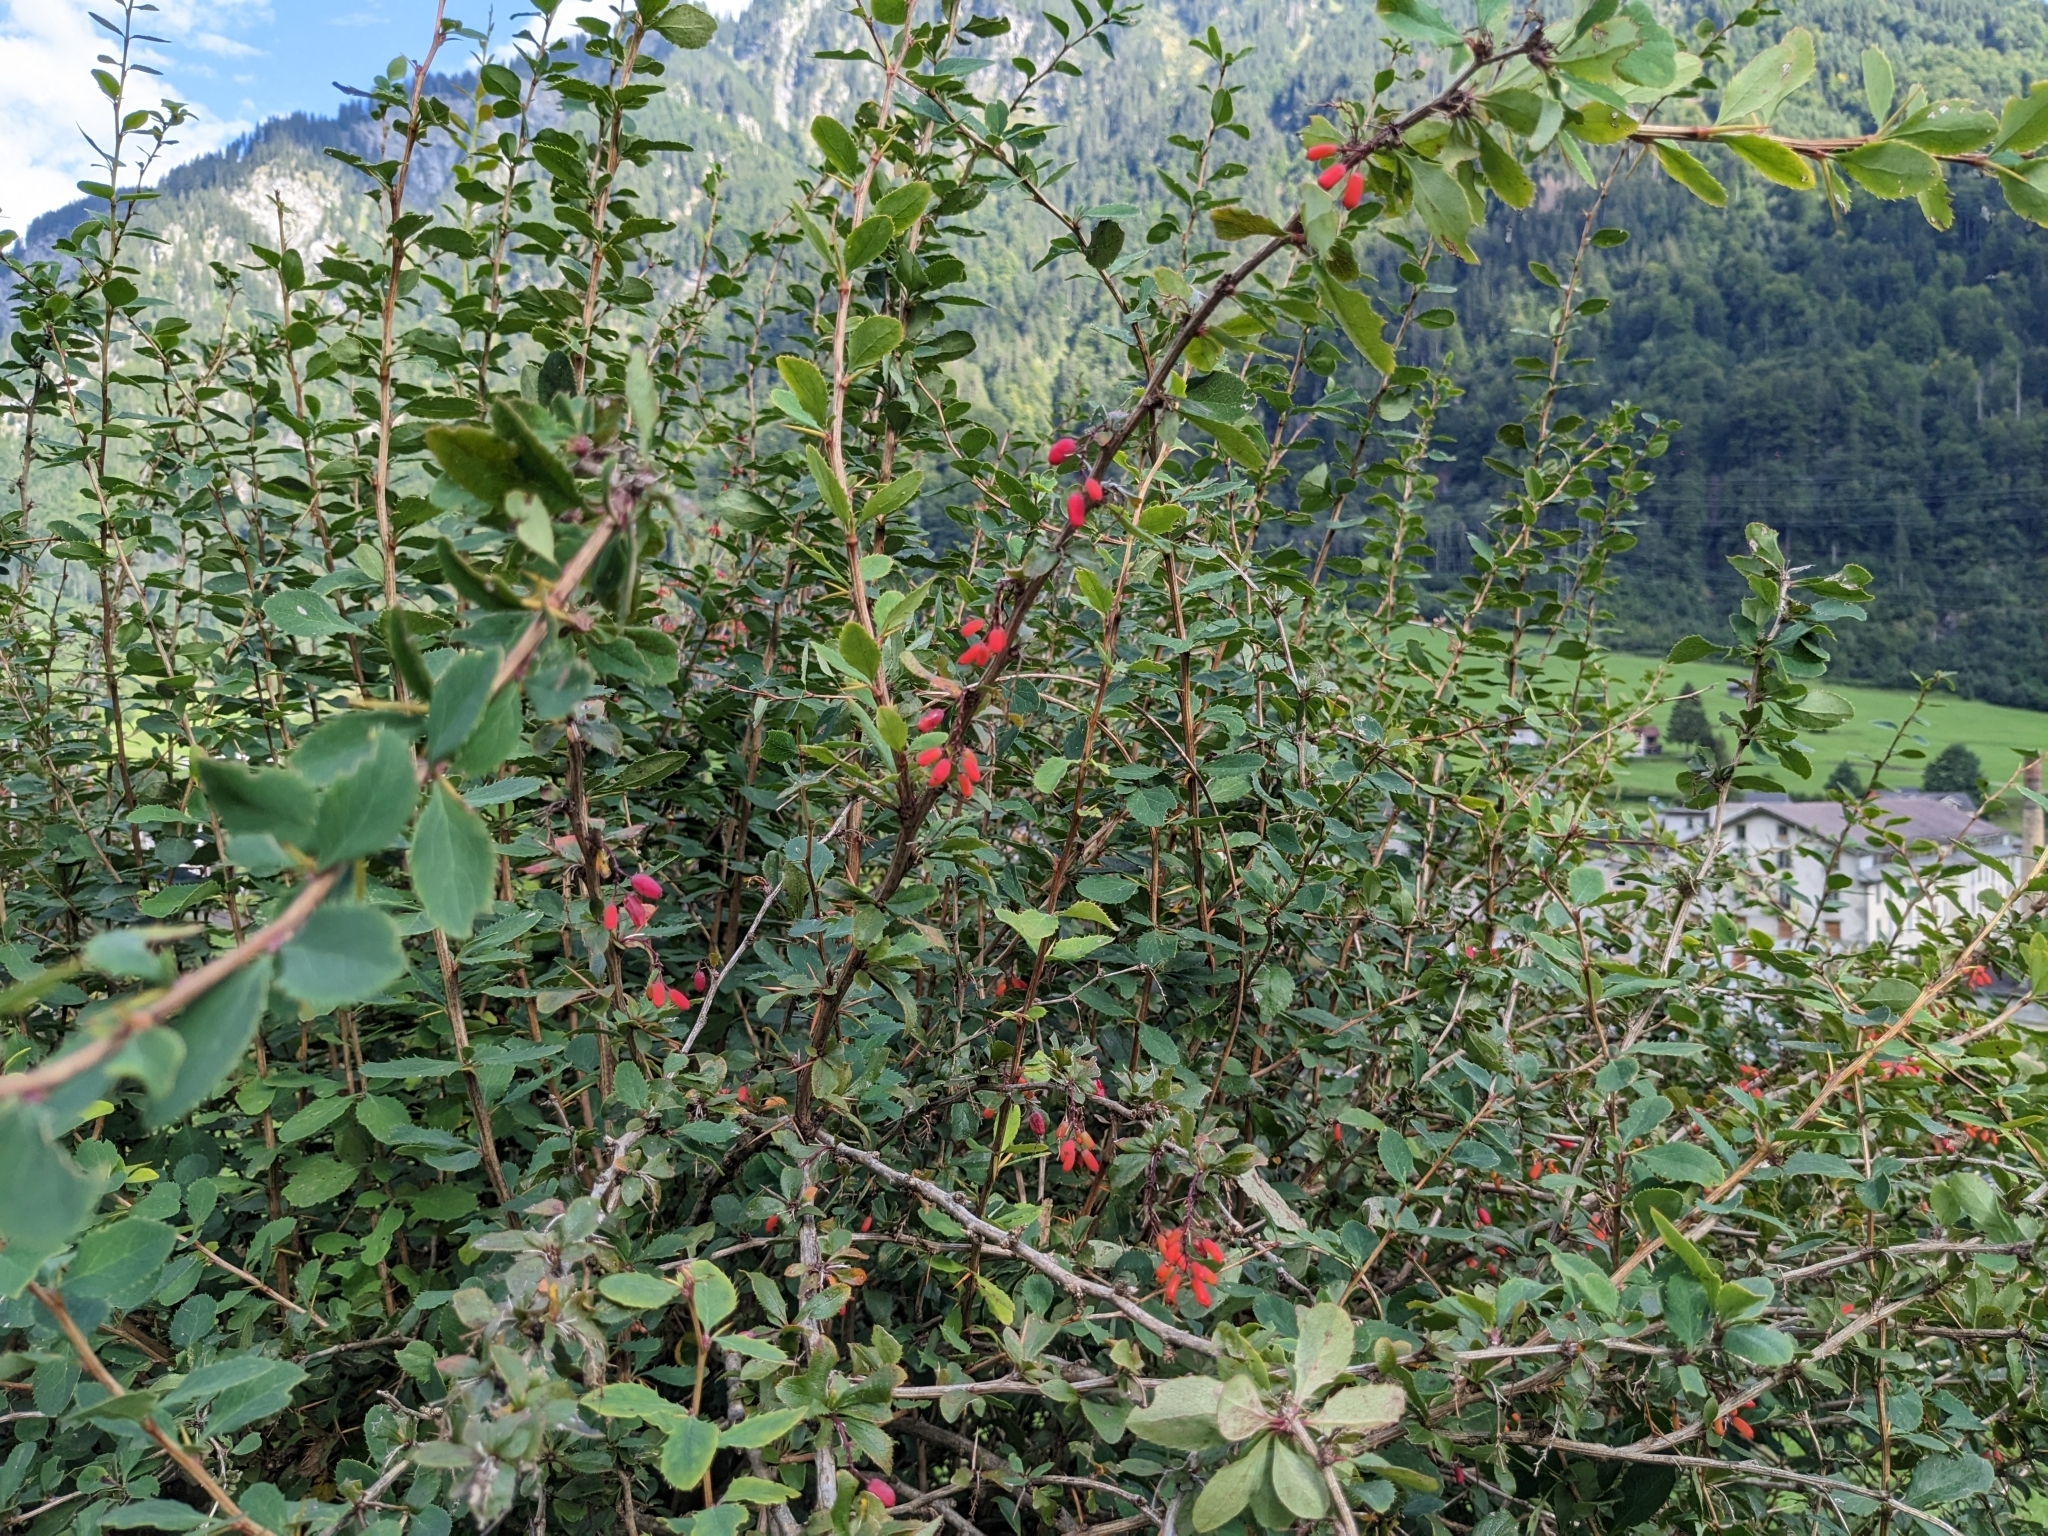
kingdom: Plantae
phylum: Tracheophyta
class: Magnoliopsida
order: Ranunculales
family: Berberidaceae
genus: Berberis
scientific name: Berberis vulgaris
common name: Barberry
